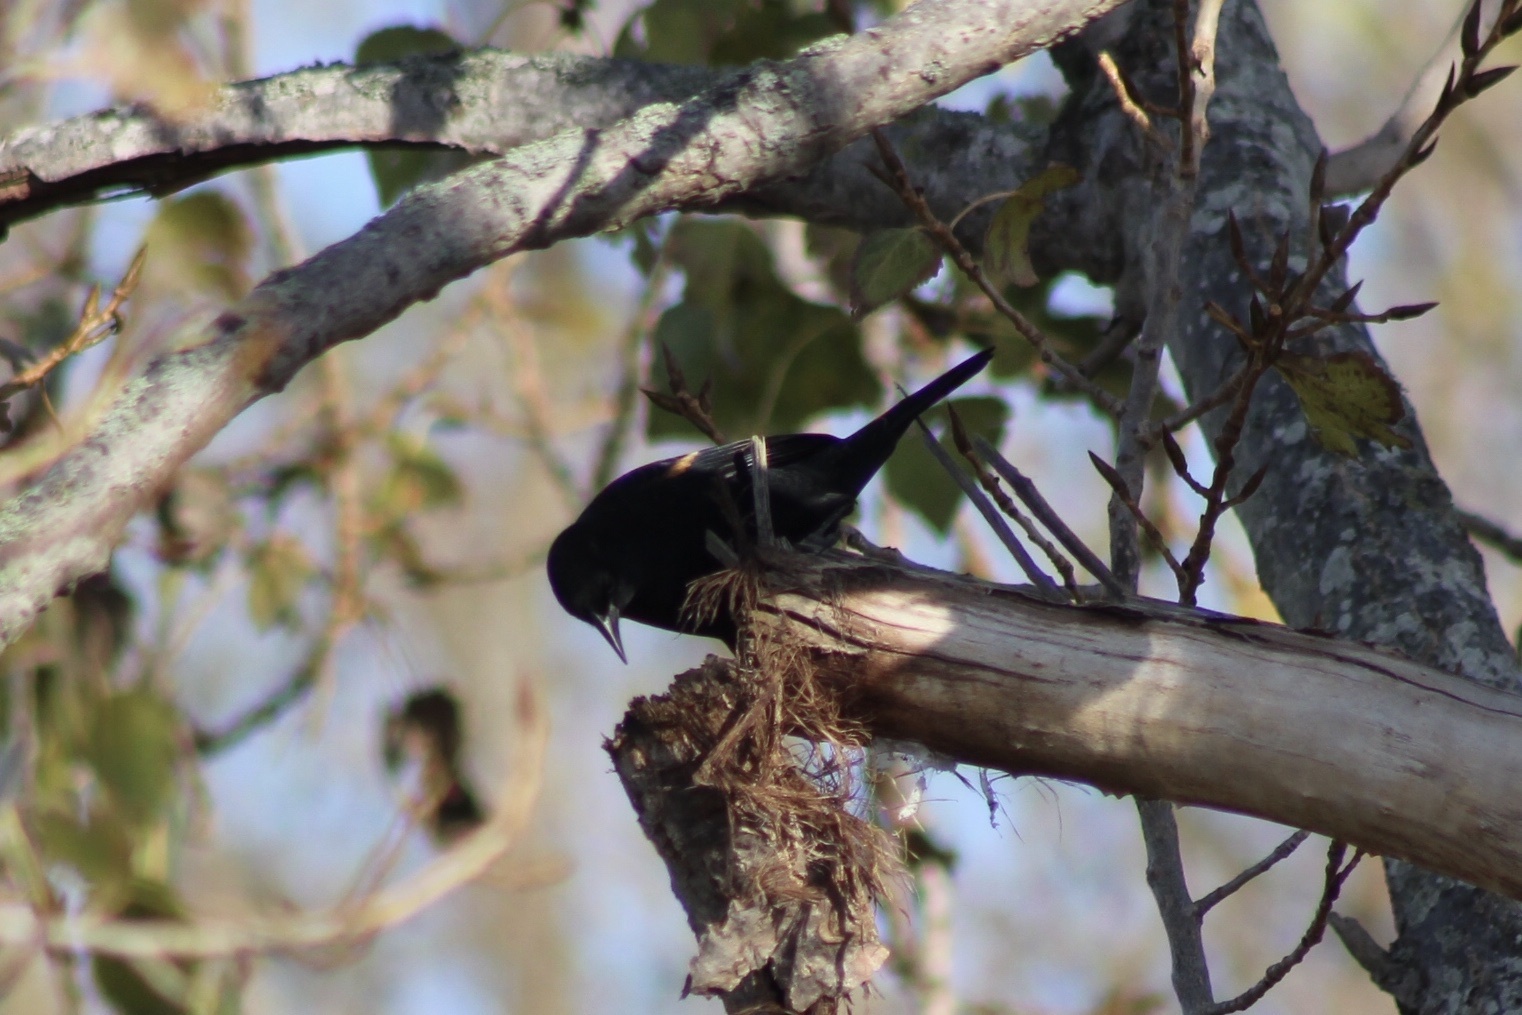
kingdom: Animalia
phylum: Chordata
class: Aves
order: Passeriformes
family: Icteridae
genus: Agelaius
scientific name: Agelaius phoeniceus
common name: Red-winged blackbird
